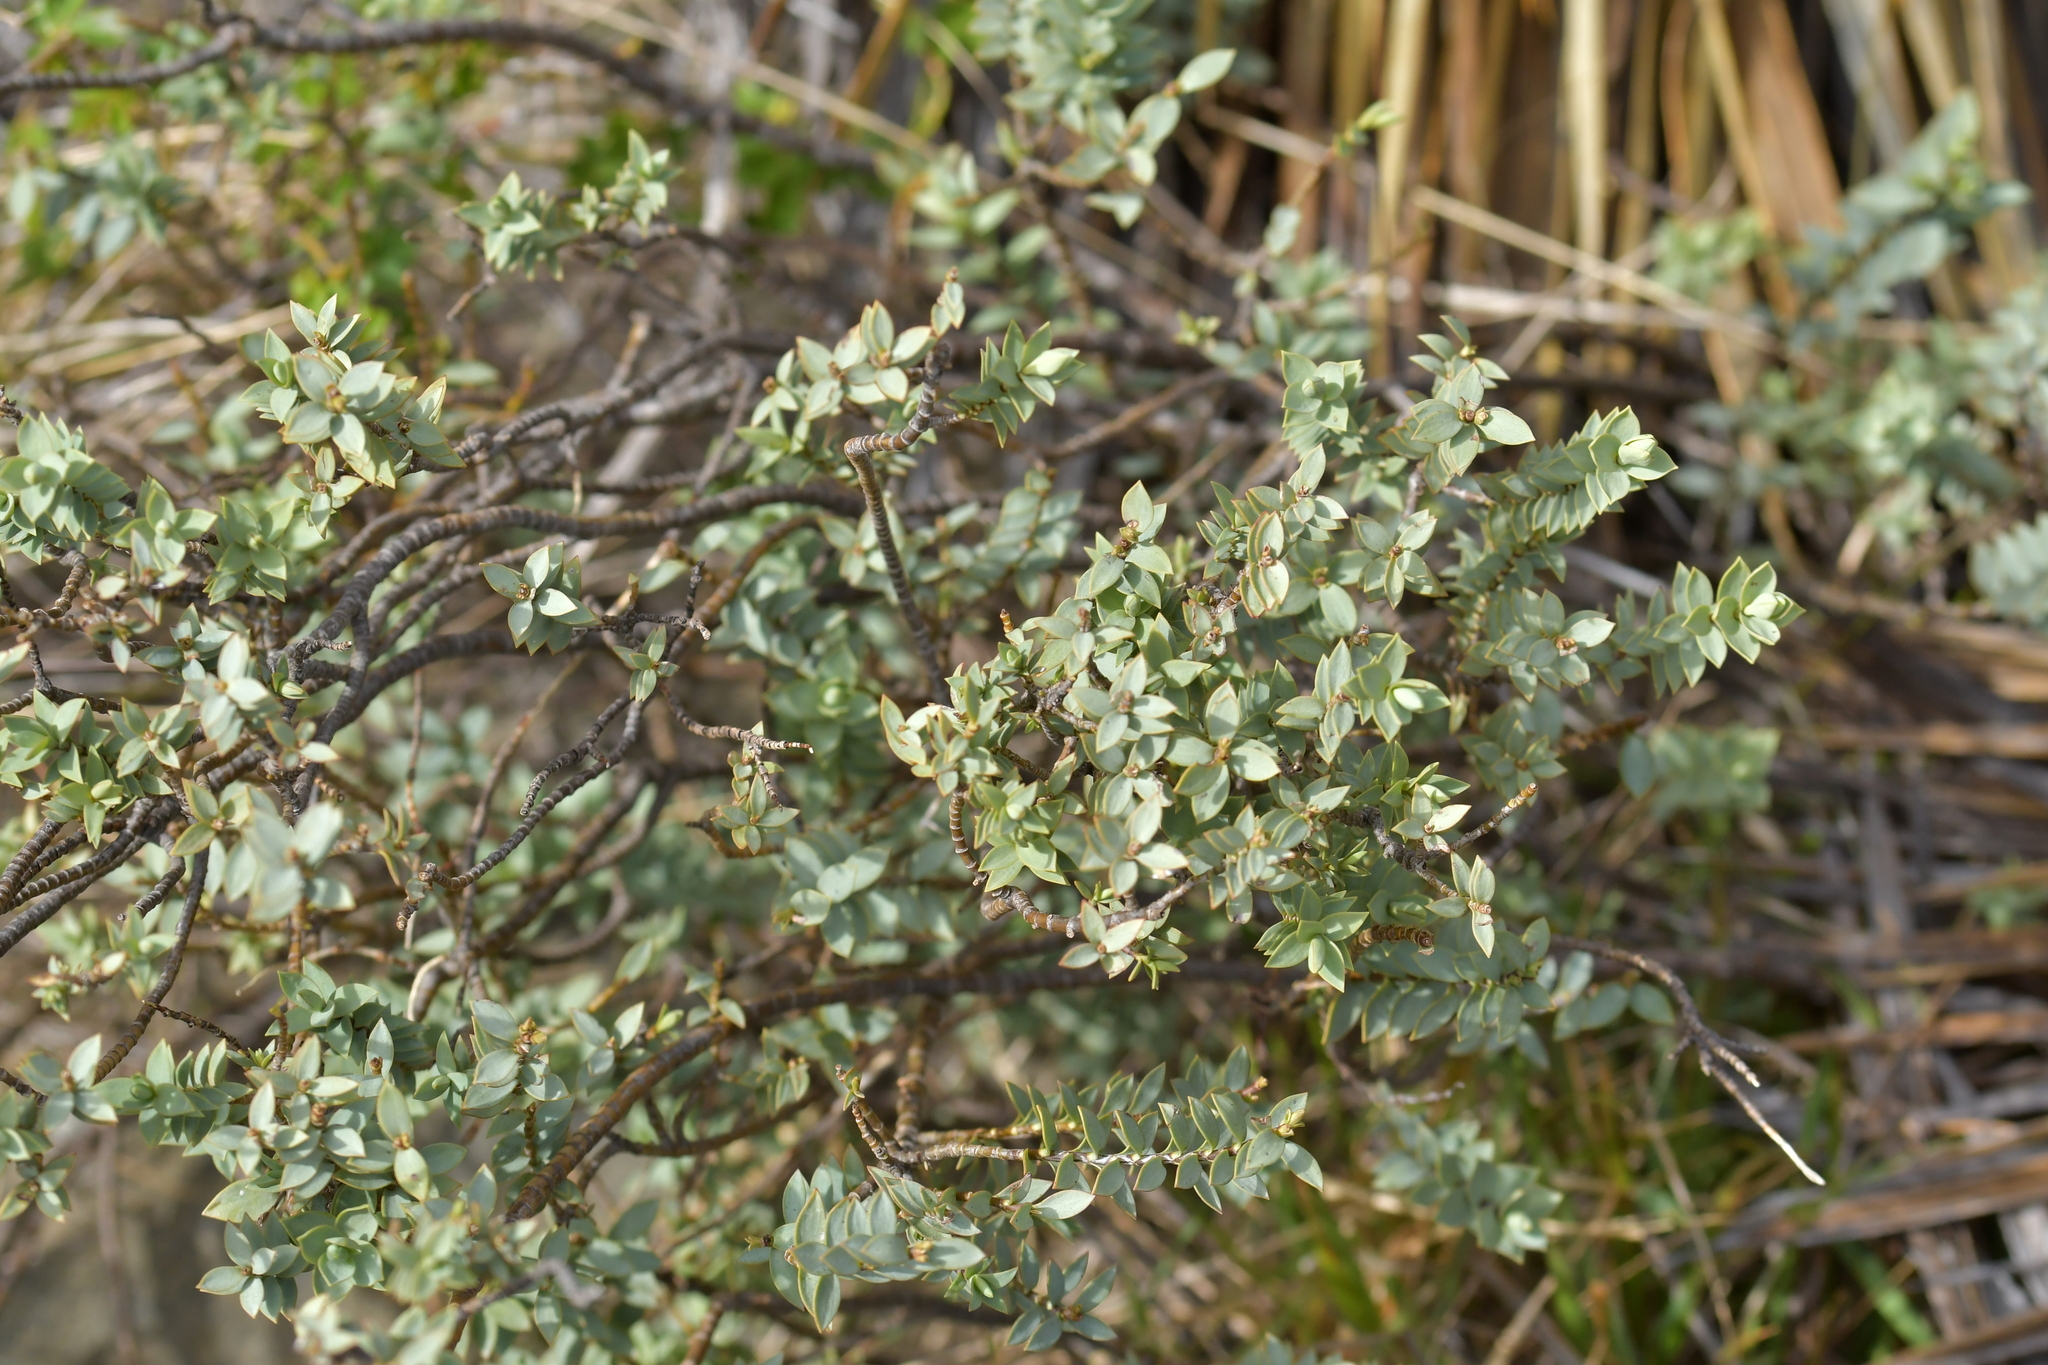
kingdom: Plantae
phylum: Tracheophyta
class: Magnoliopsida
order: Lamiales
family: Plantaginaceae
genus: Veronica
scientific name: Veronica pimeleoides
